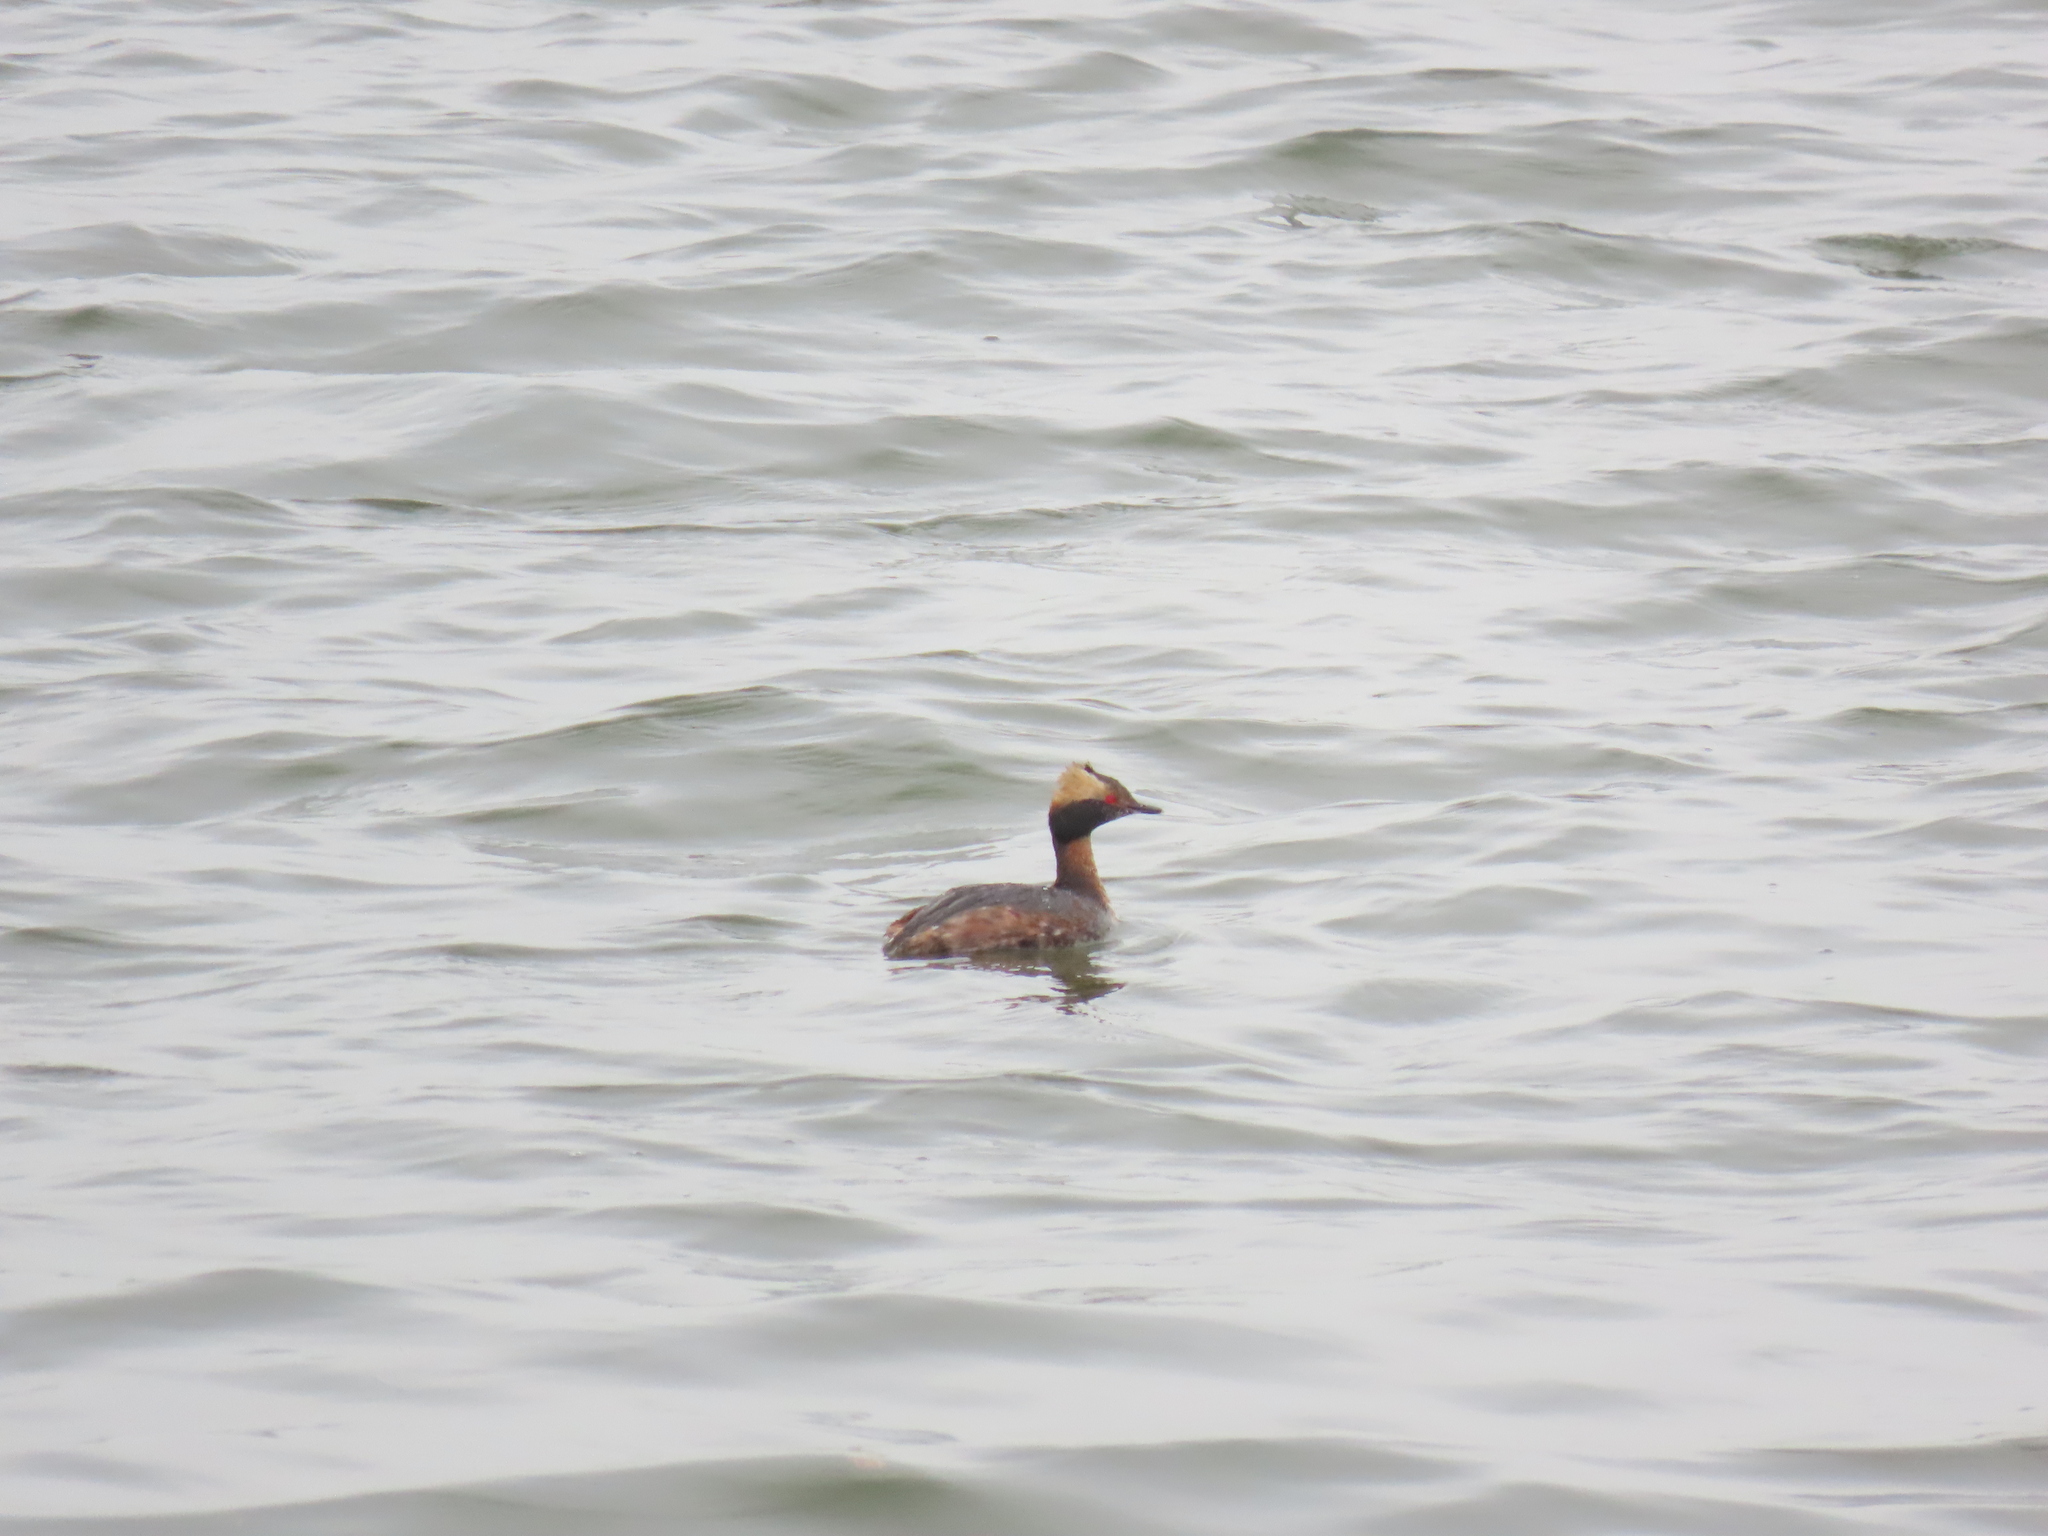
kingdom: Animalia
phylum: Chordata
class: Aves
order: Podicipediformes
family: Podicipedidae
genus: Podiceps
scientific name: Podiceps auritus
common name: Horned grebe
